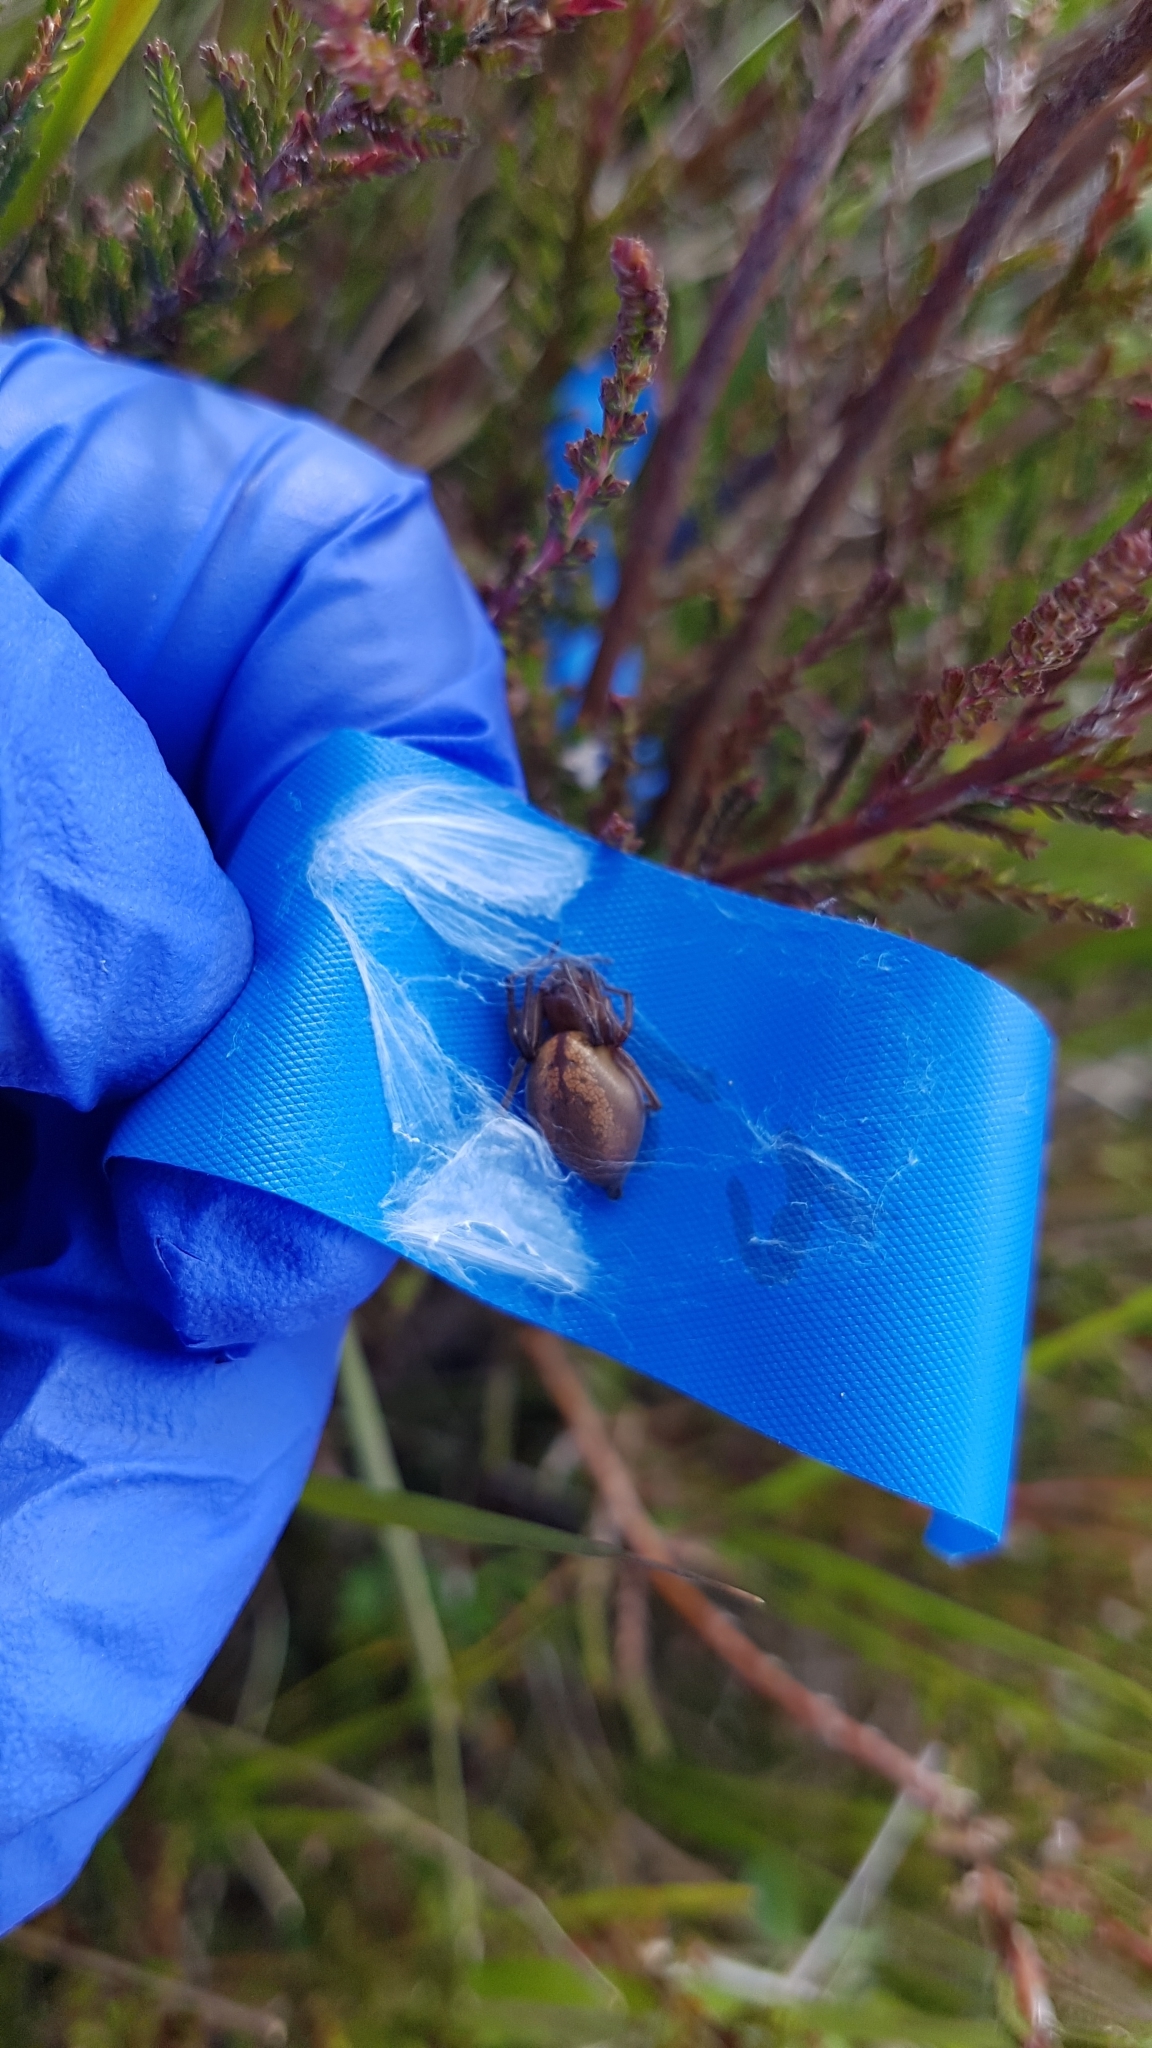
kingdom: Animalia
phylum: Arthropoda
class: Arachnida
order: Araneae
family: Cheiracanthiidae
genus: Eutittha
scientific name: Eutittha stratiotica
